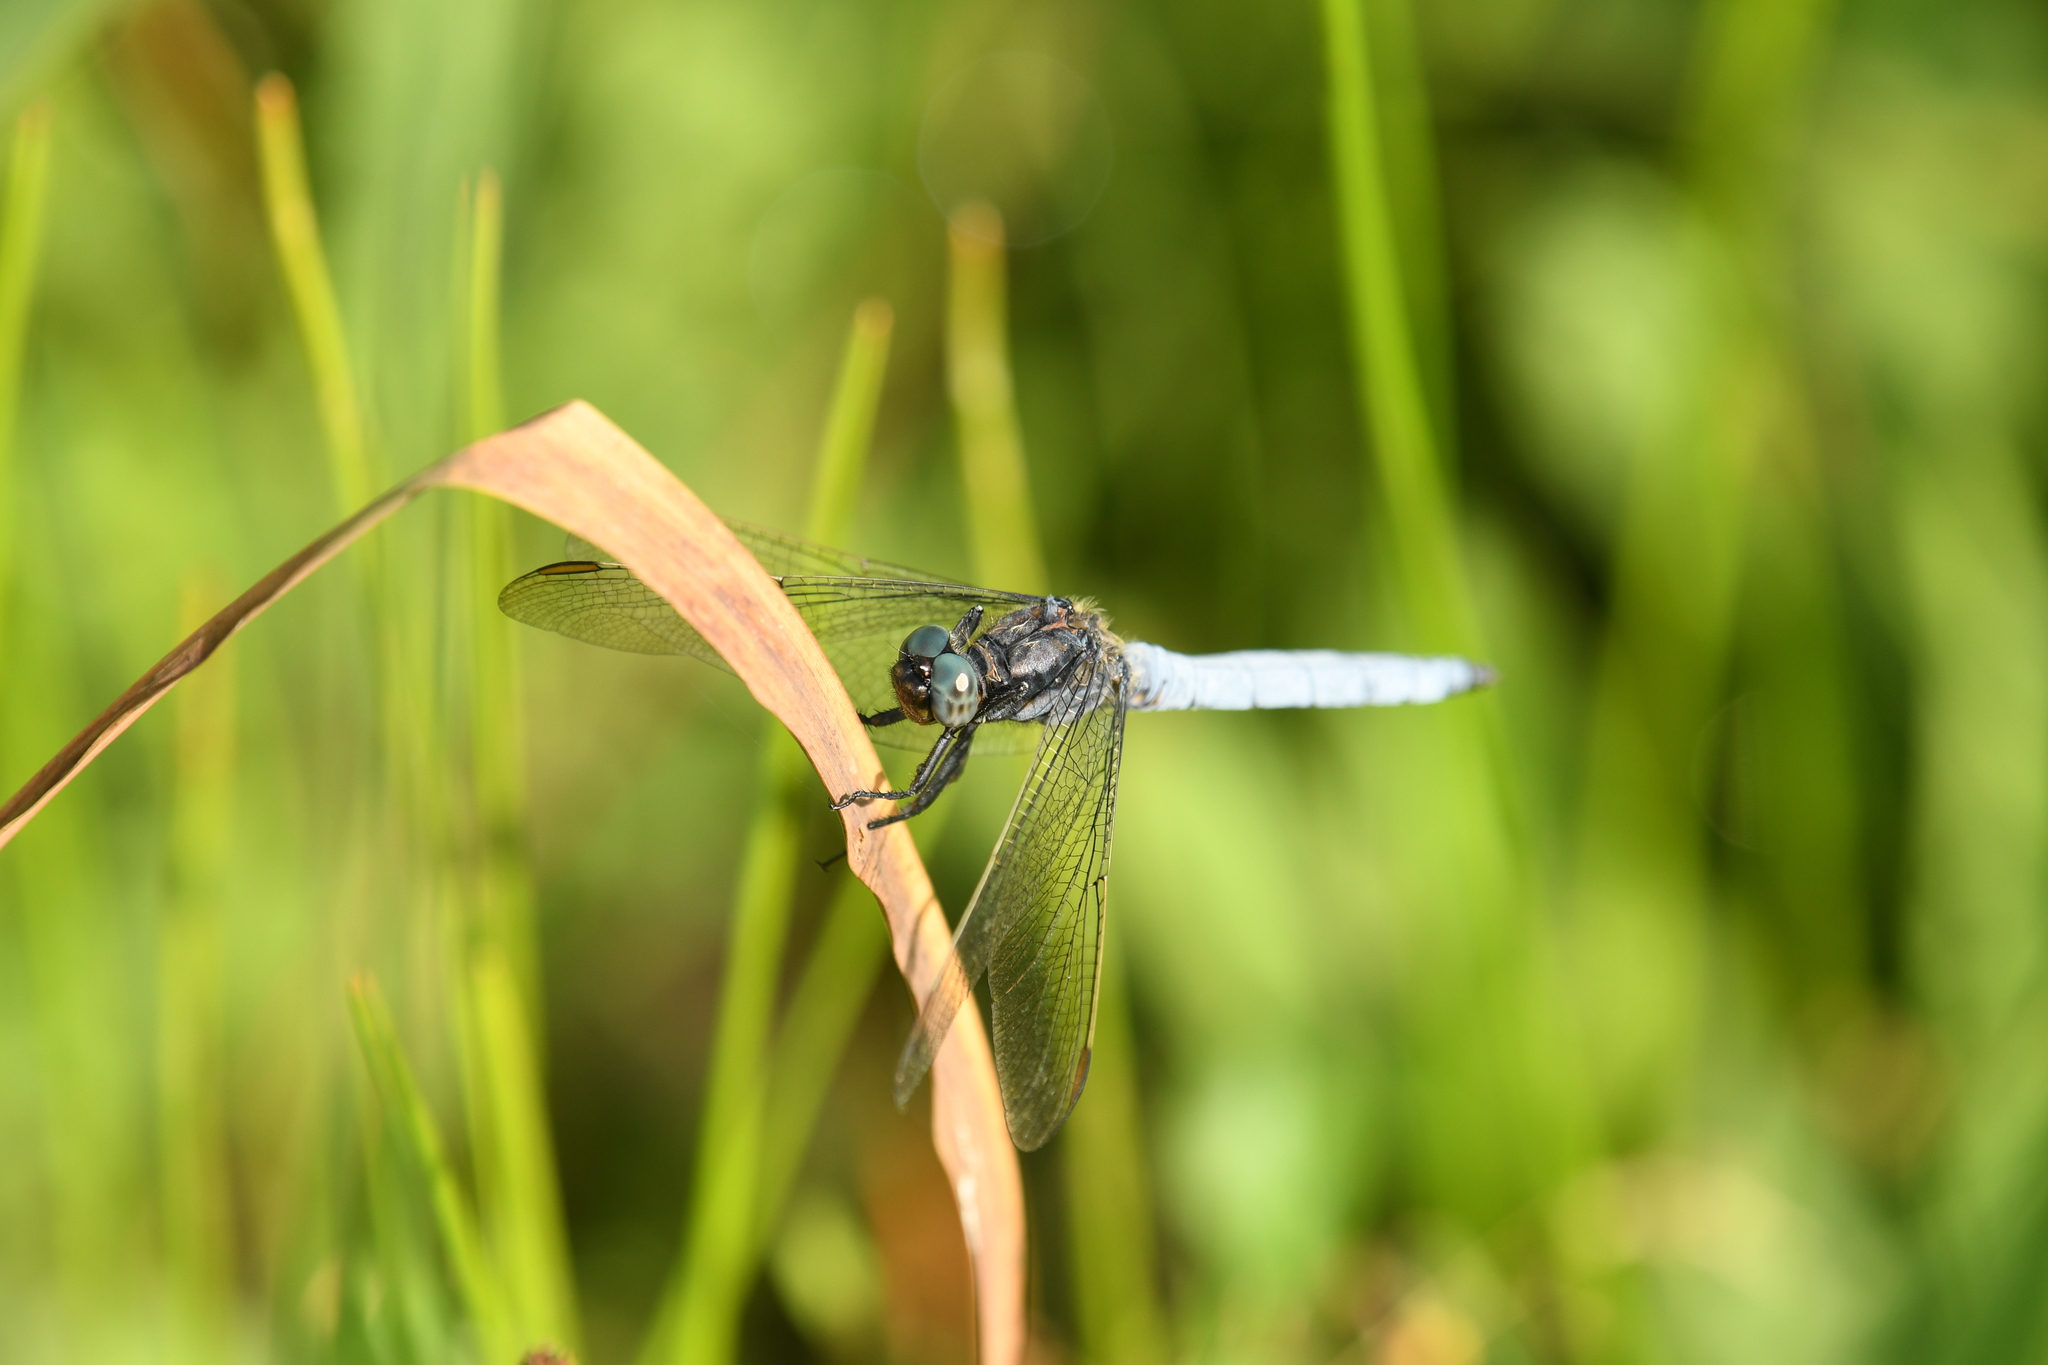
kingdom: Animalia
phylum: Arthropoda
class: Insecta
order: Odonata
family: Libellulidae
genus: Orthetrum
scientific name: Orthetrum coerulescens
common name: Keeled skimmer
